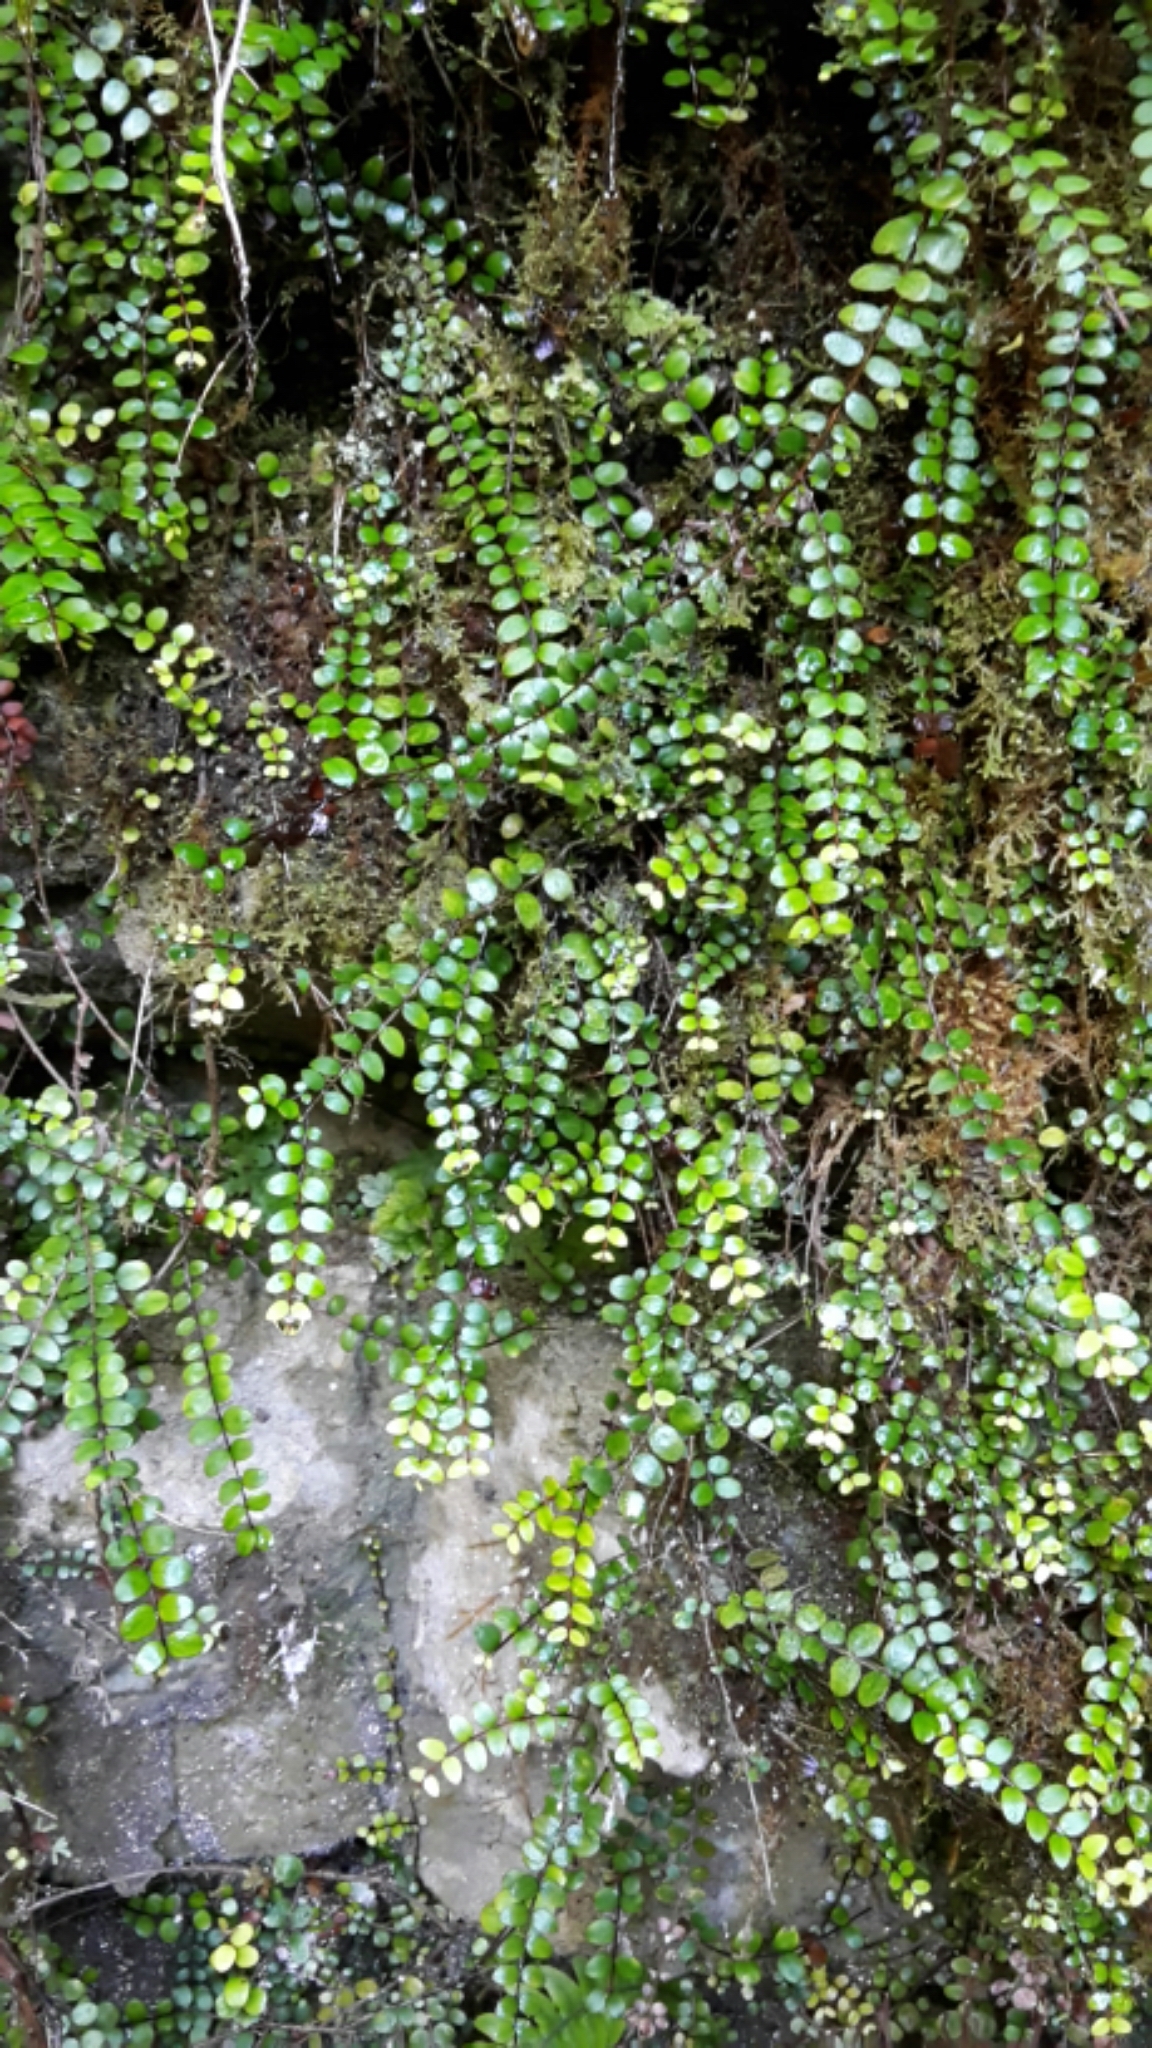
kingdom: Plantae
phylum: Tracheophyta
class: Magnoliopsida
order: Myrtales
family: Myrtaceae
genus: Metrosideros
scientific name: Metrosideros diffusa
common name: Small ratavine
